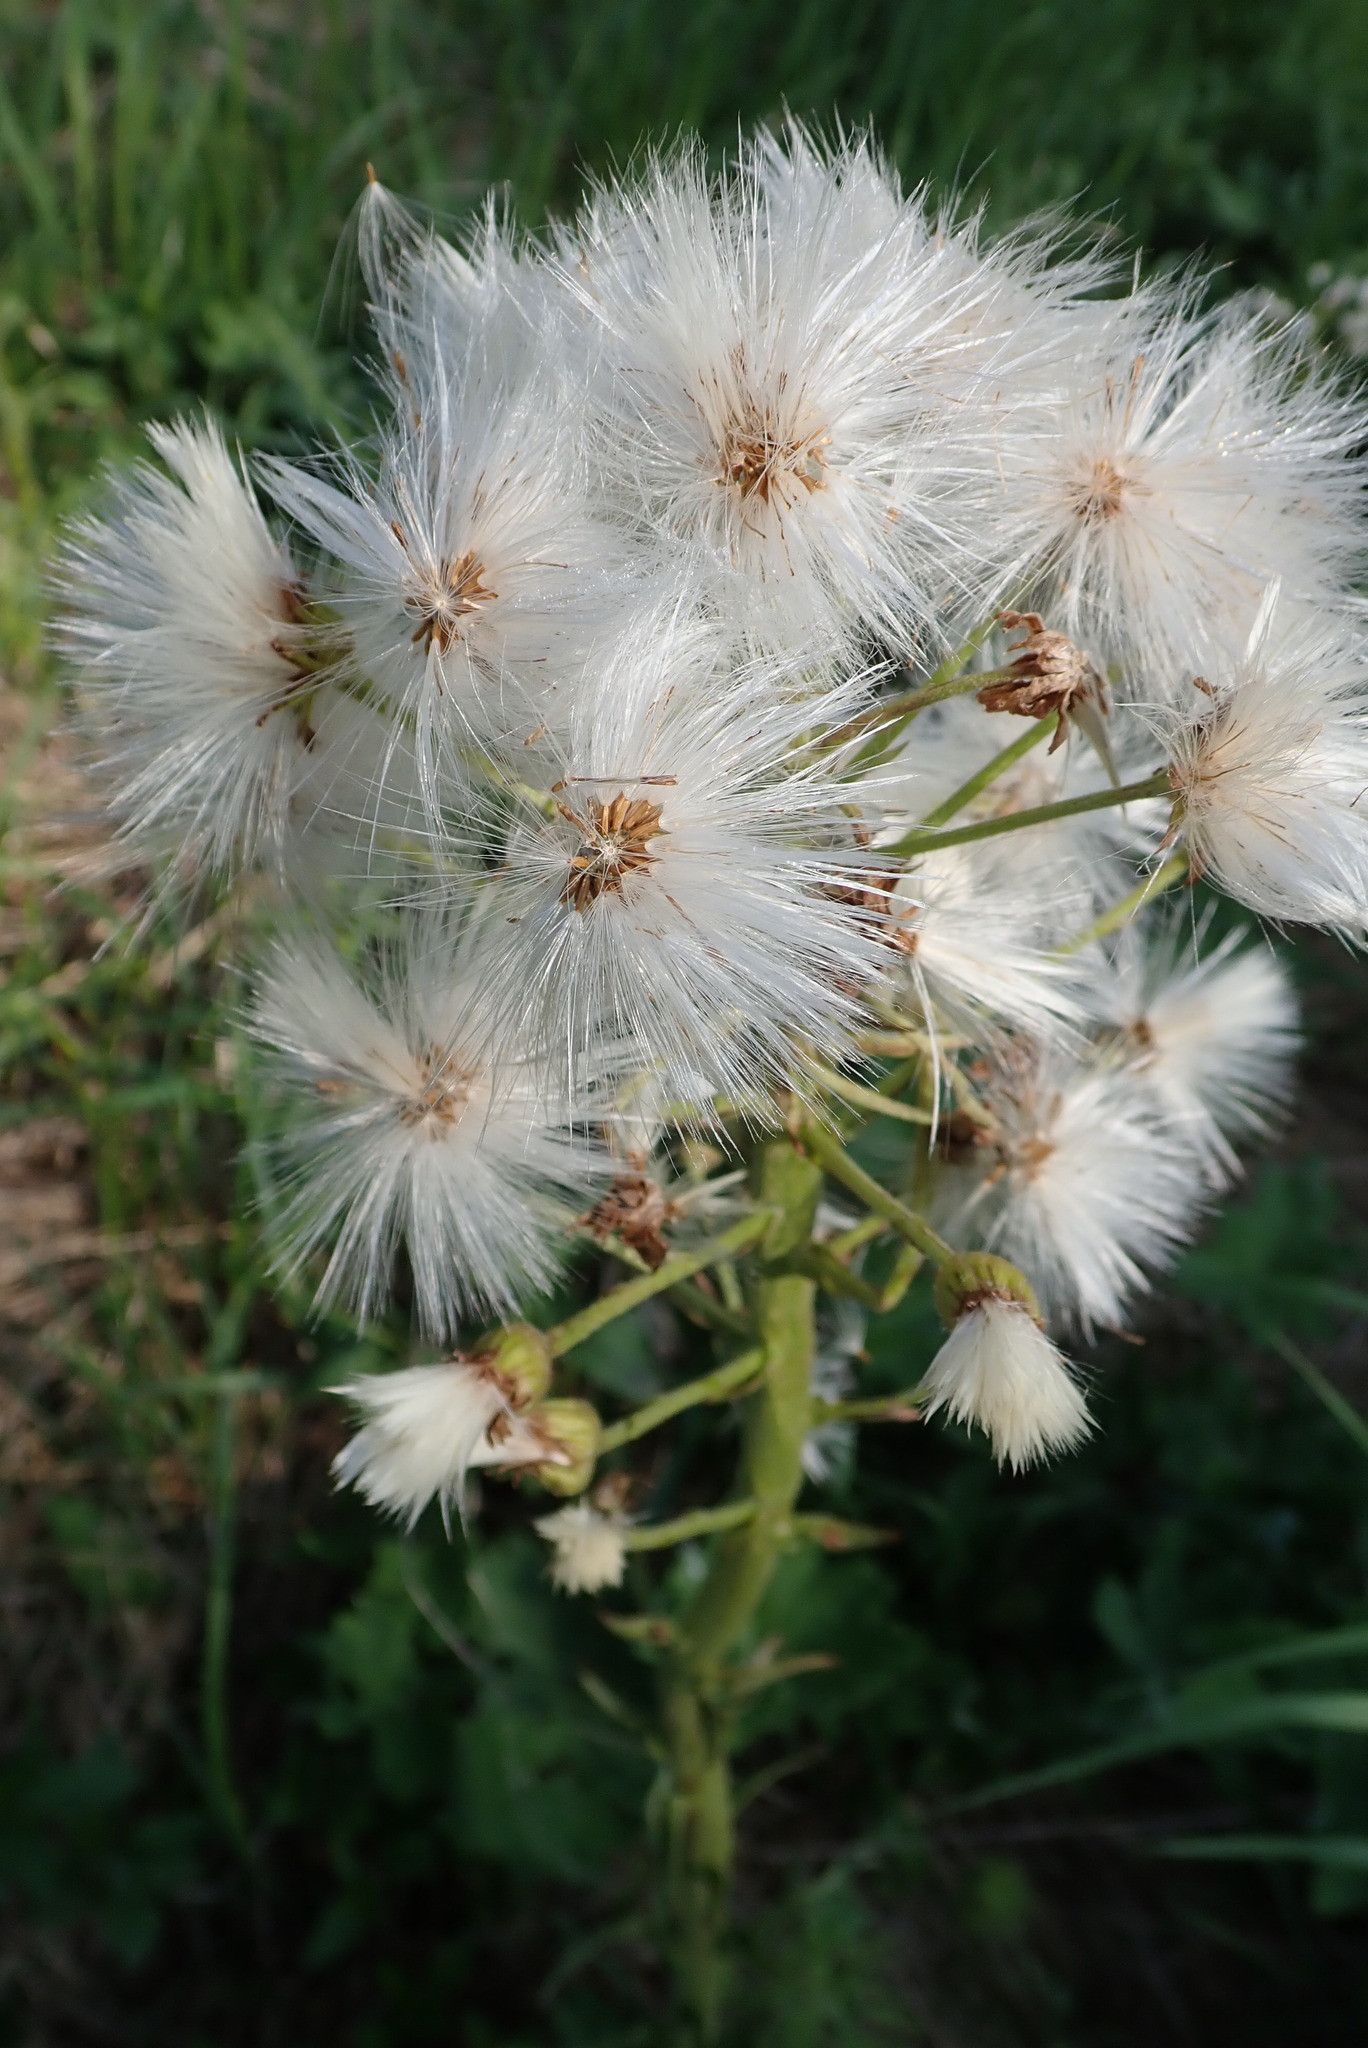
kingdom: Plantae
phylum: Tracheophyta
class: Magnoliopsida
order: Asterales
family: Asteraceae
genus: Petasites
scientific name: Petasites frigidus
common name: Arctic butterbur
